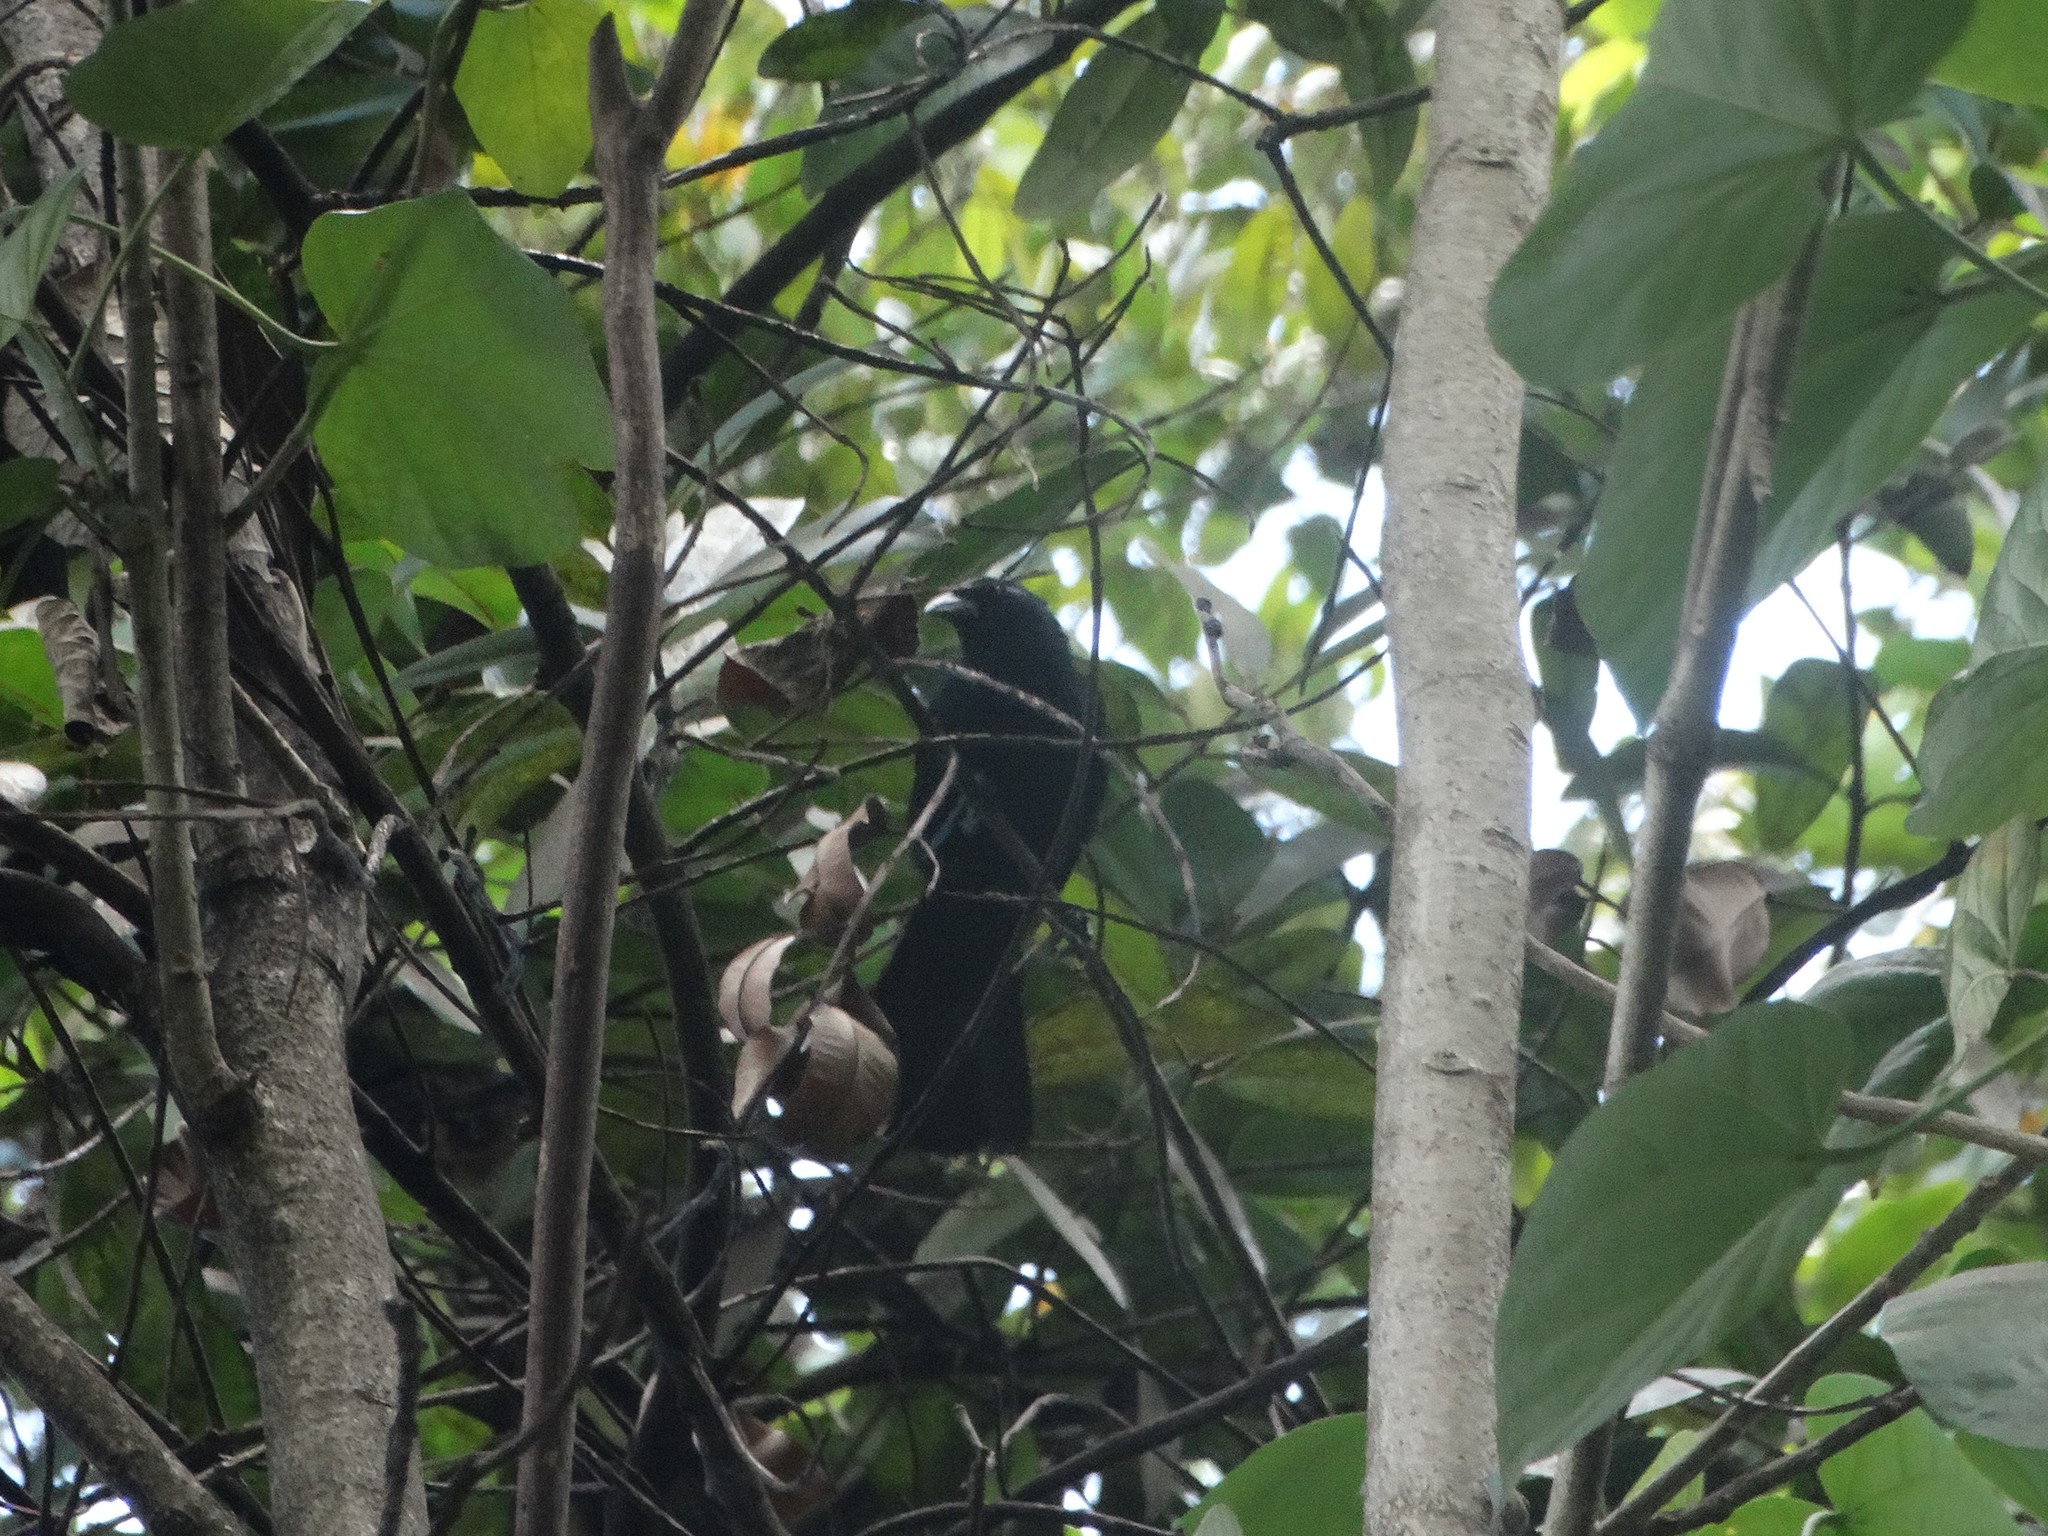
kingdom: Animalia
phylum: Chordata
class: Aves
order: Passeriformes
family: Icteridae
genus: Dives
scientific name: Dives atroviolaceus
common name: Cuban blackbird
